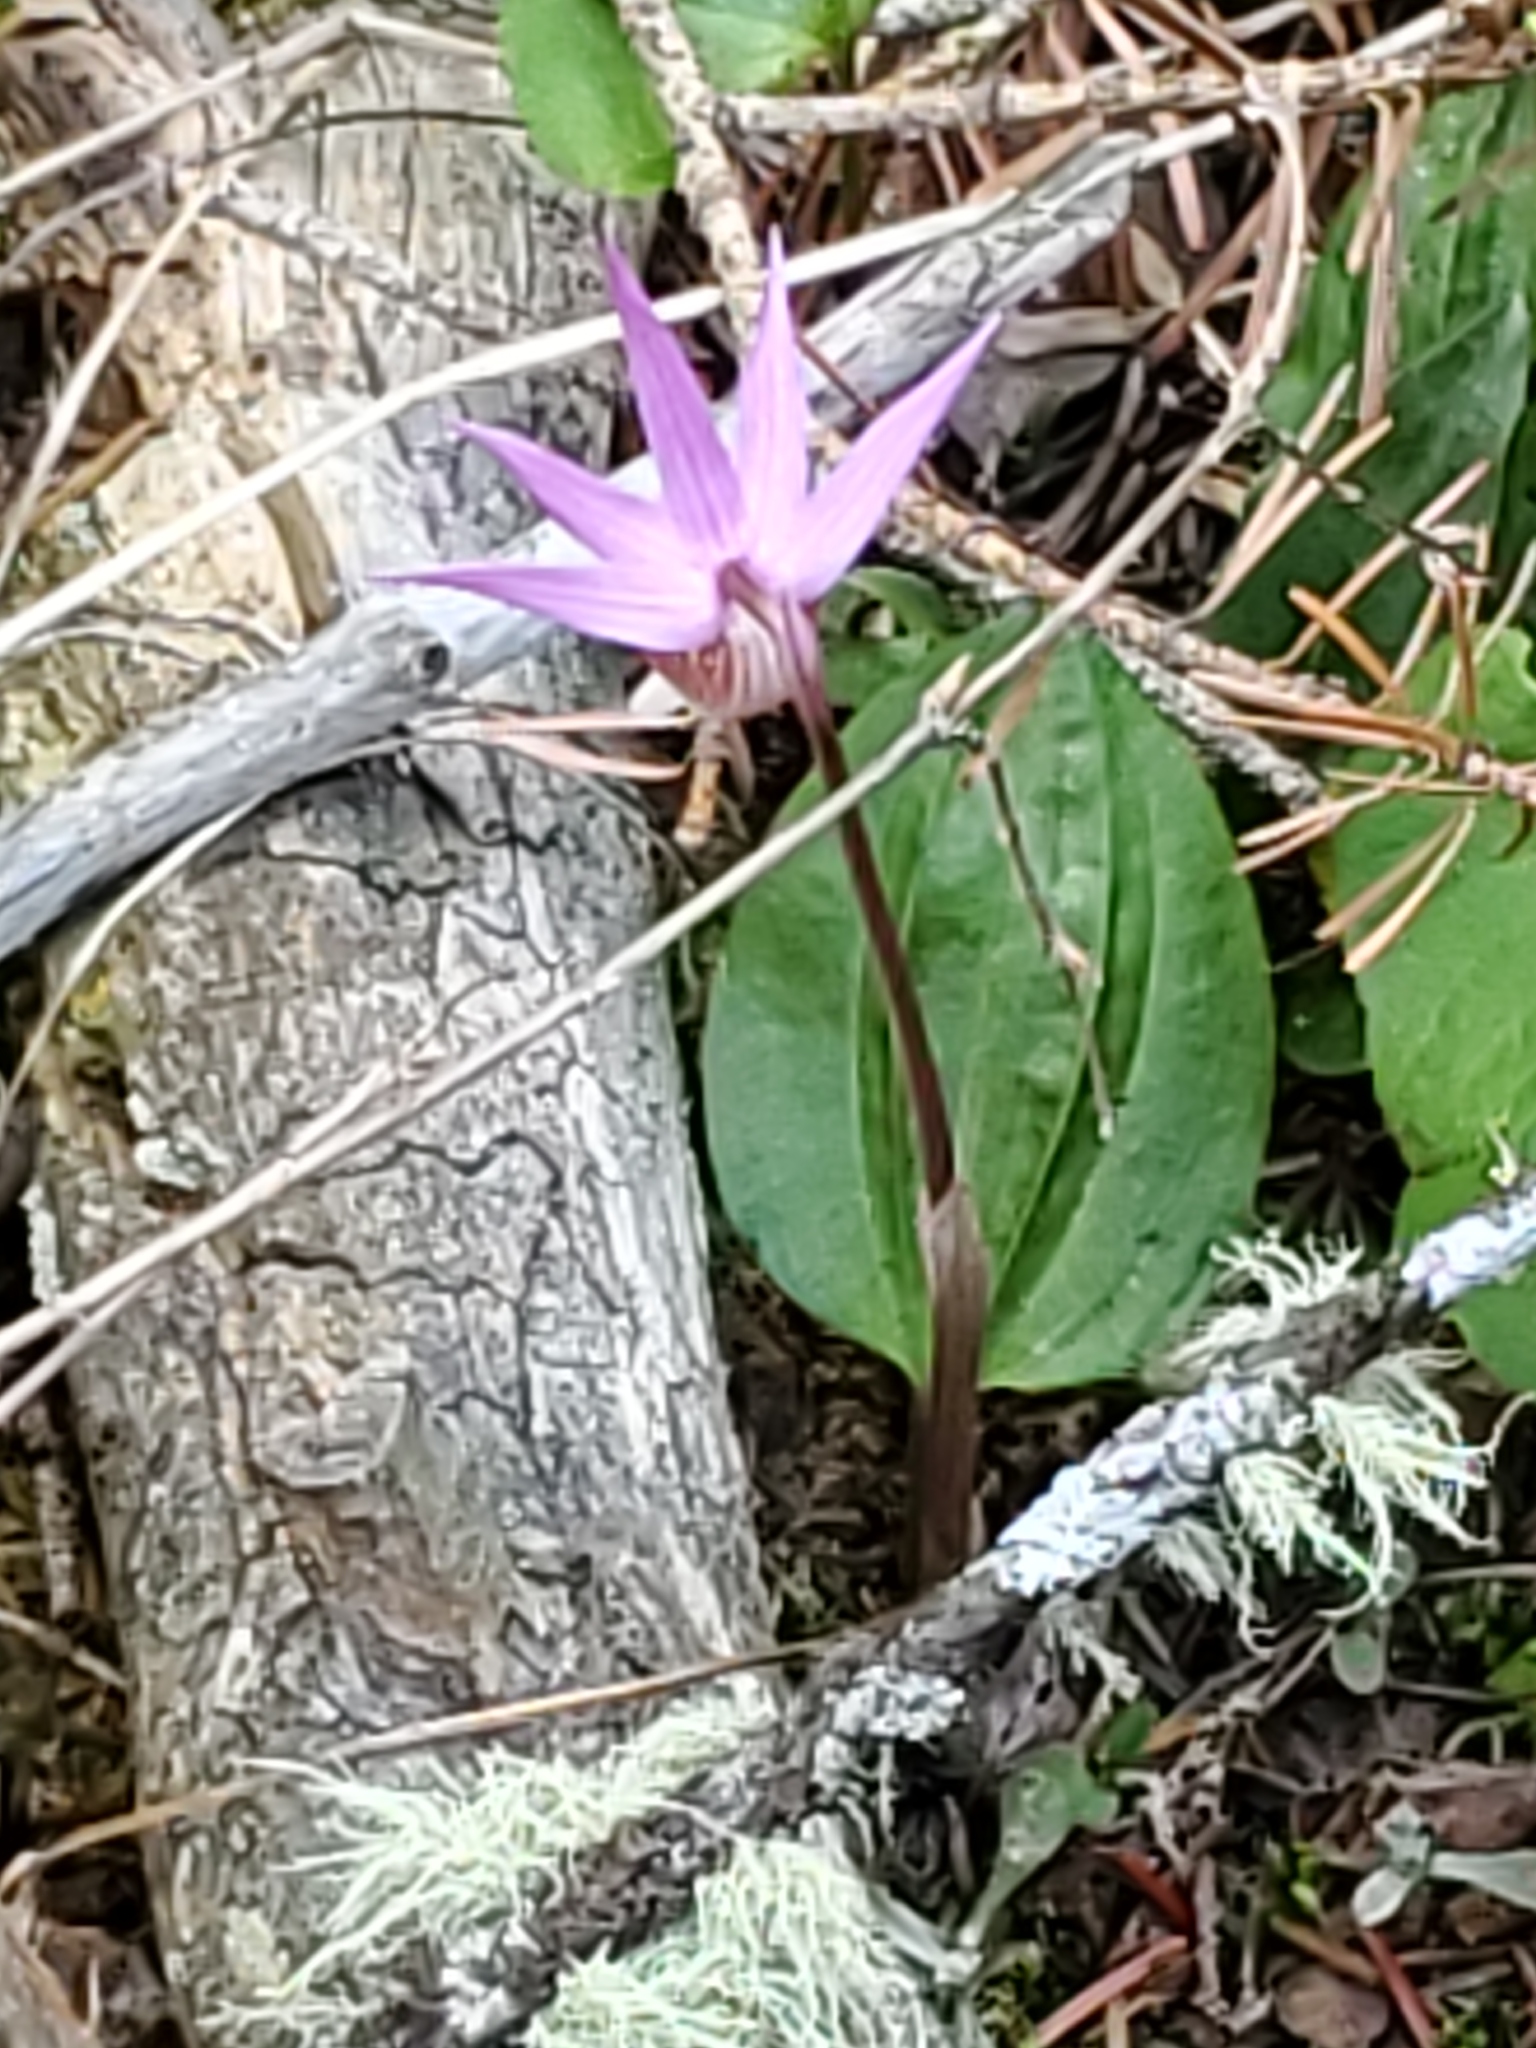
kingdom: Plantae
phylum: Tracheophyta
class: Liliopsida
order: Asparagales
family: Orchidaceae
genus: Calypso
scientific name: Calypso bulbosa
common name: Calypso
